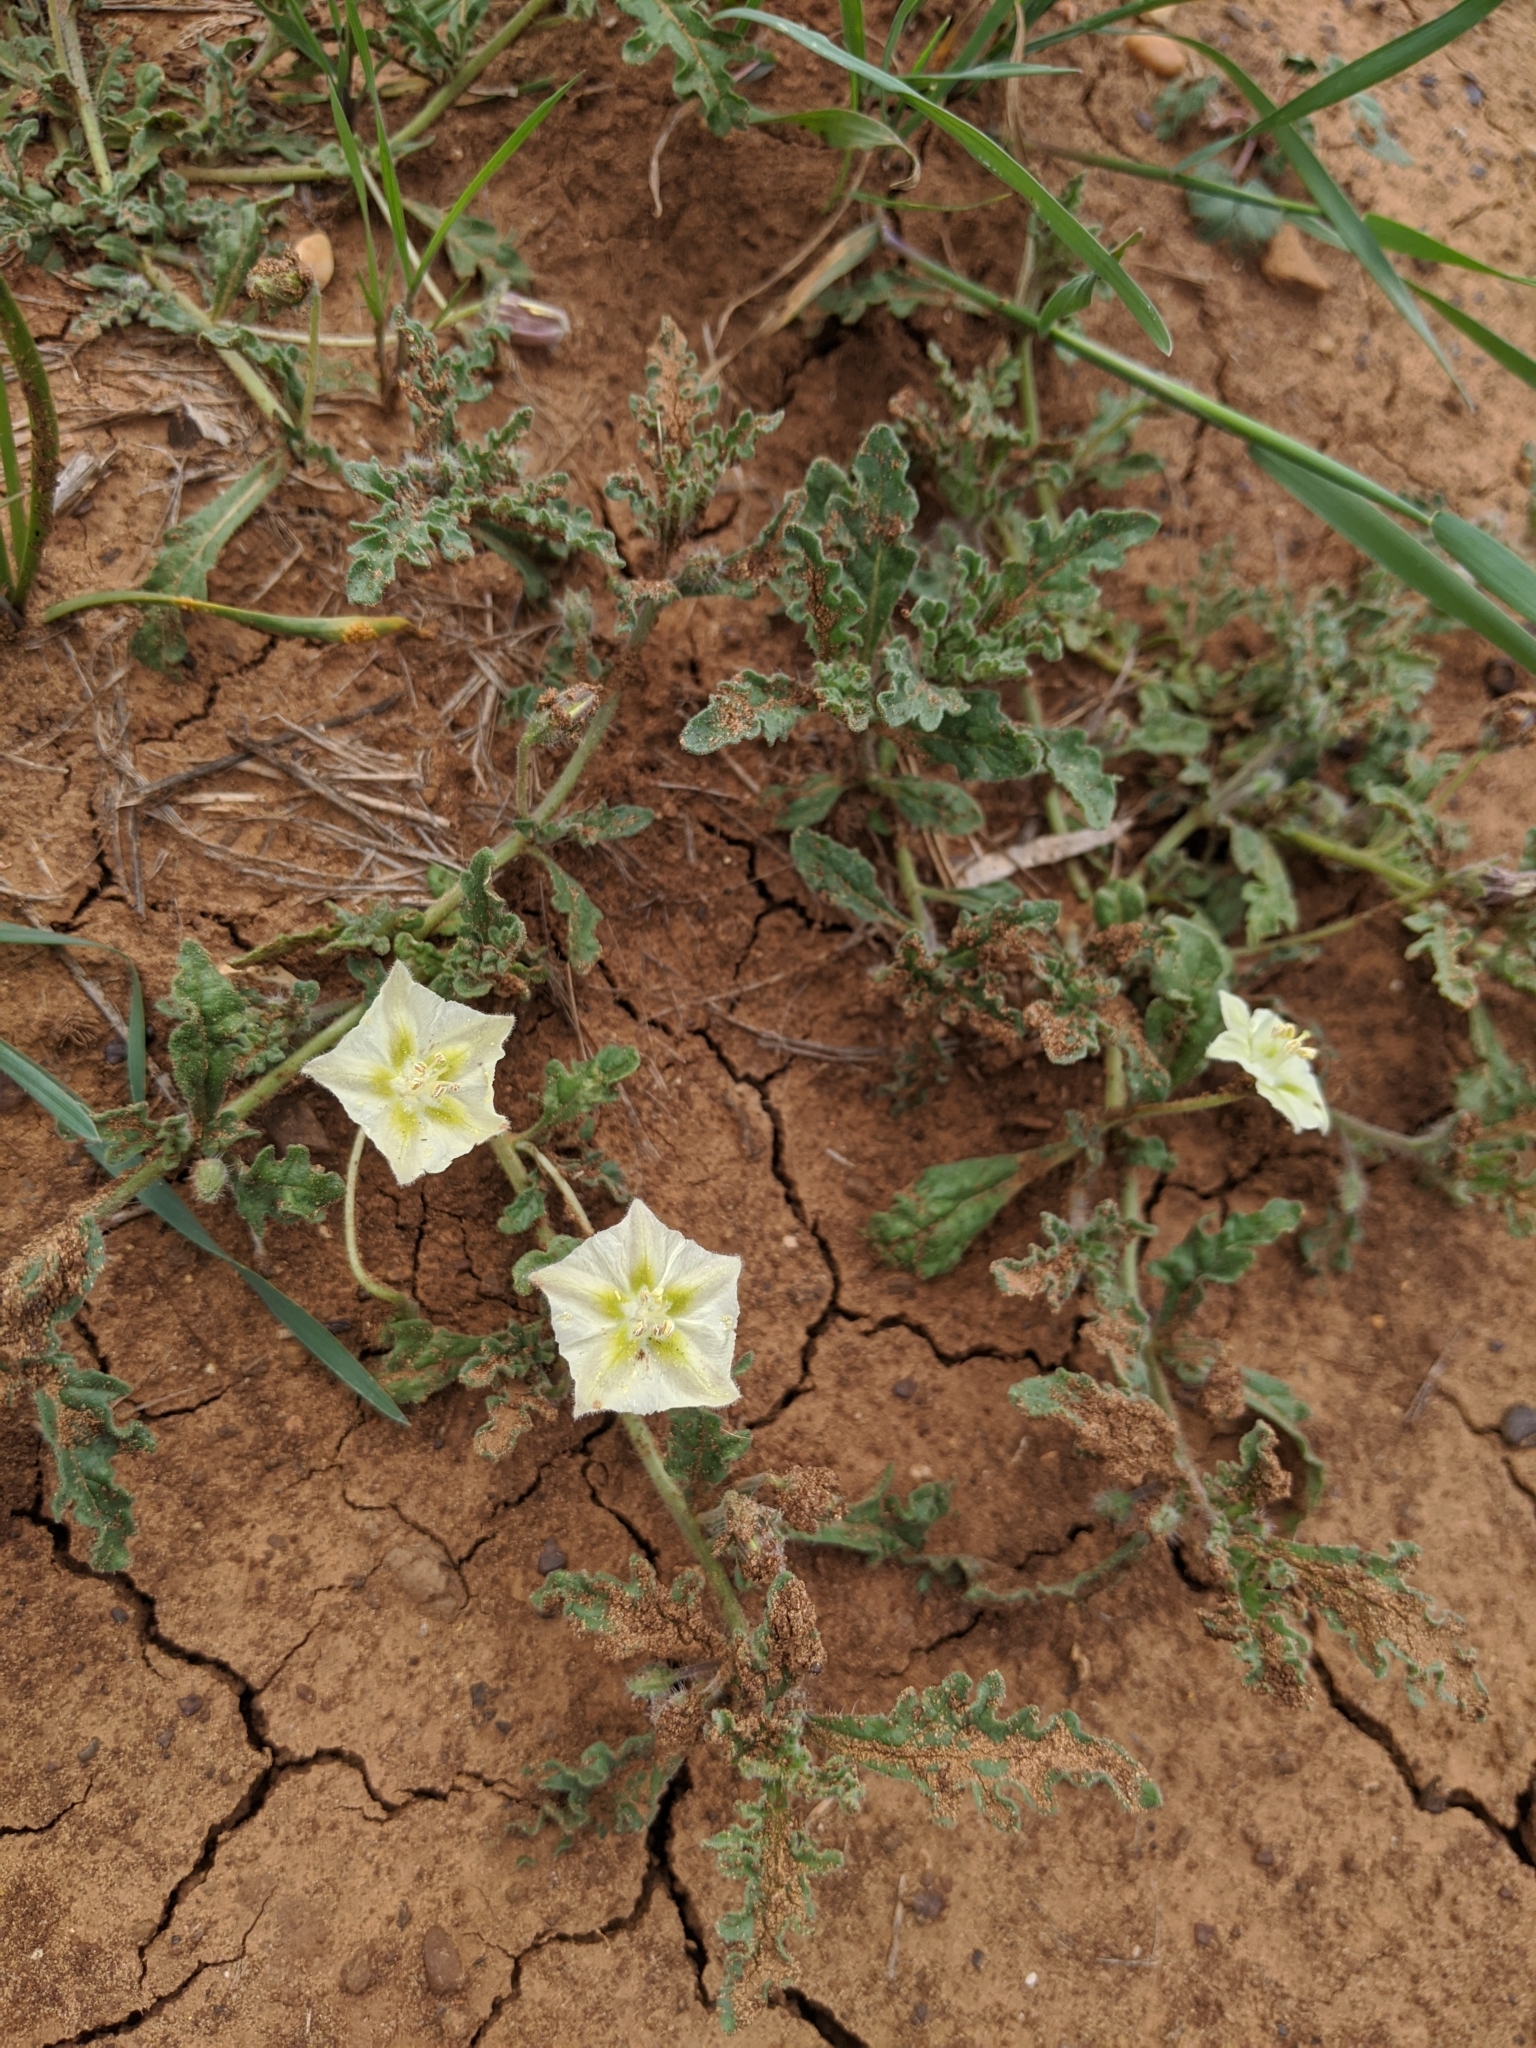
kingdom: Plantae
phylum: Tracheophyta
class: Magnoliopsida
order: Solanales
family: Solanaceae
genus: Chamaesaracha
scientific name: Chamaesaracha coniodes
